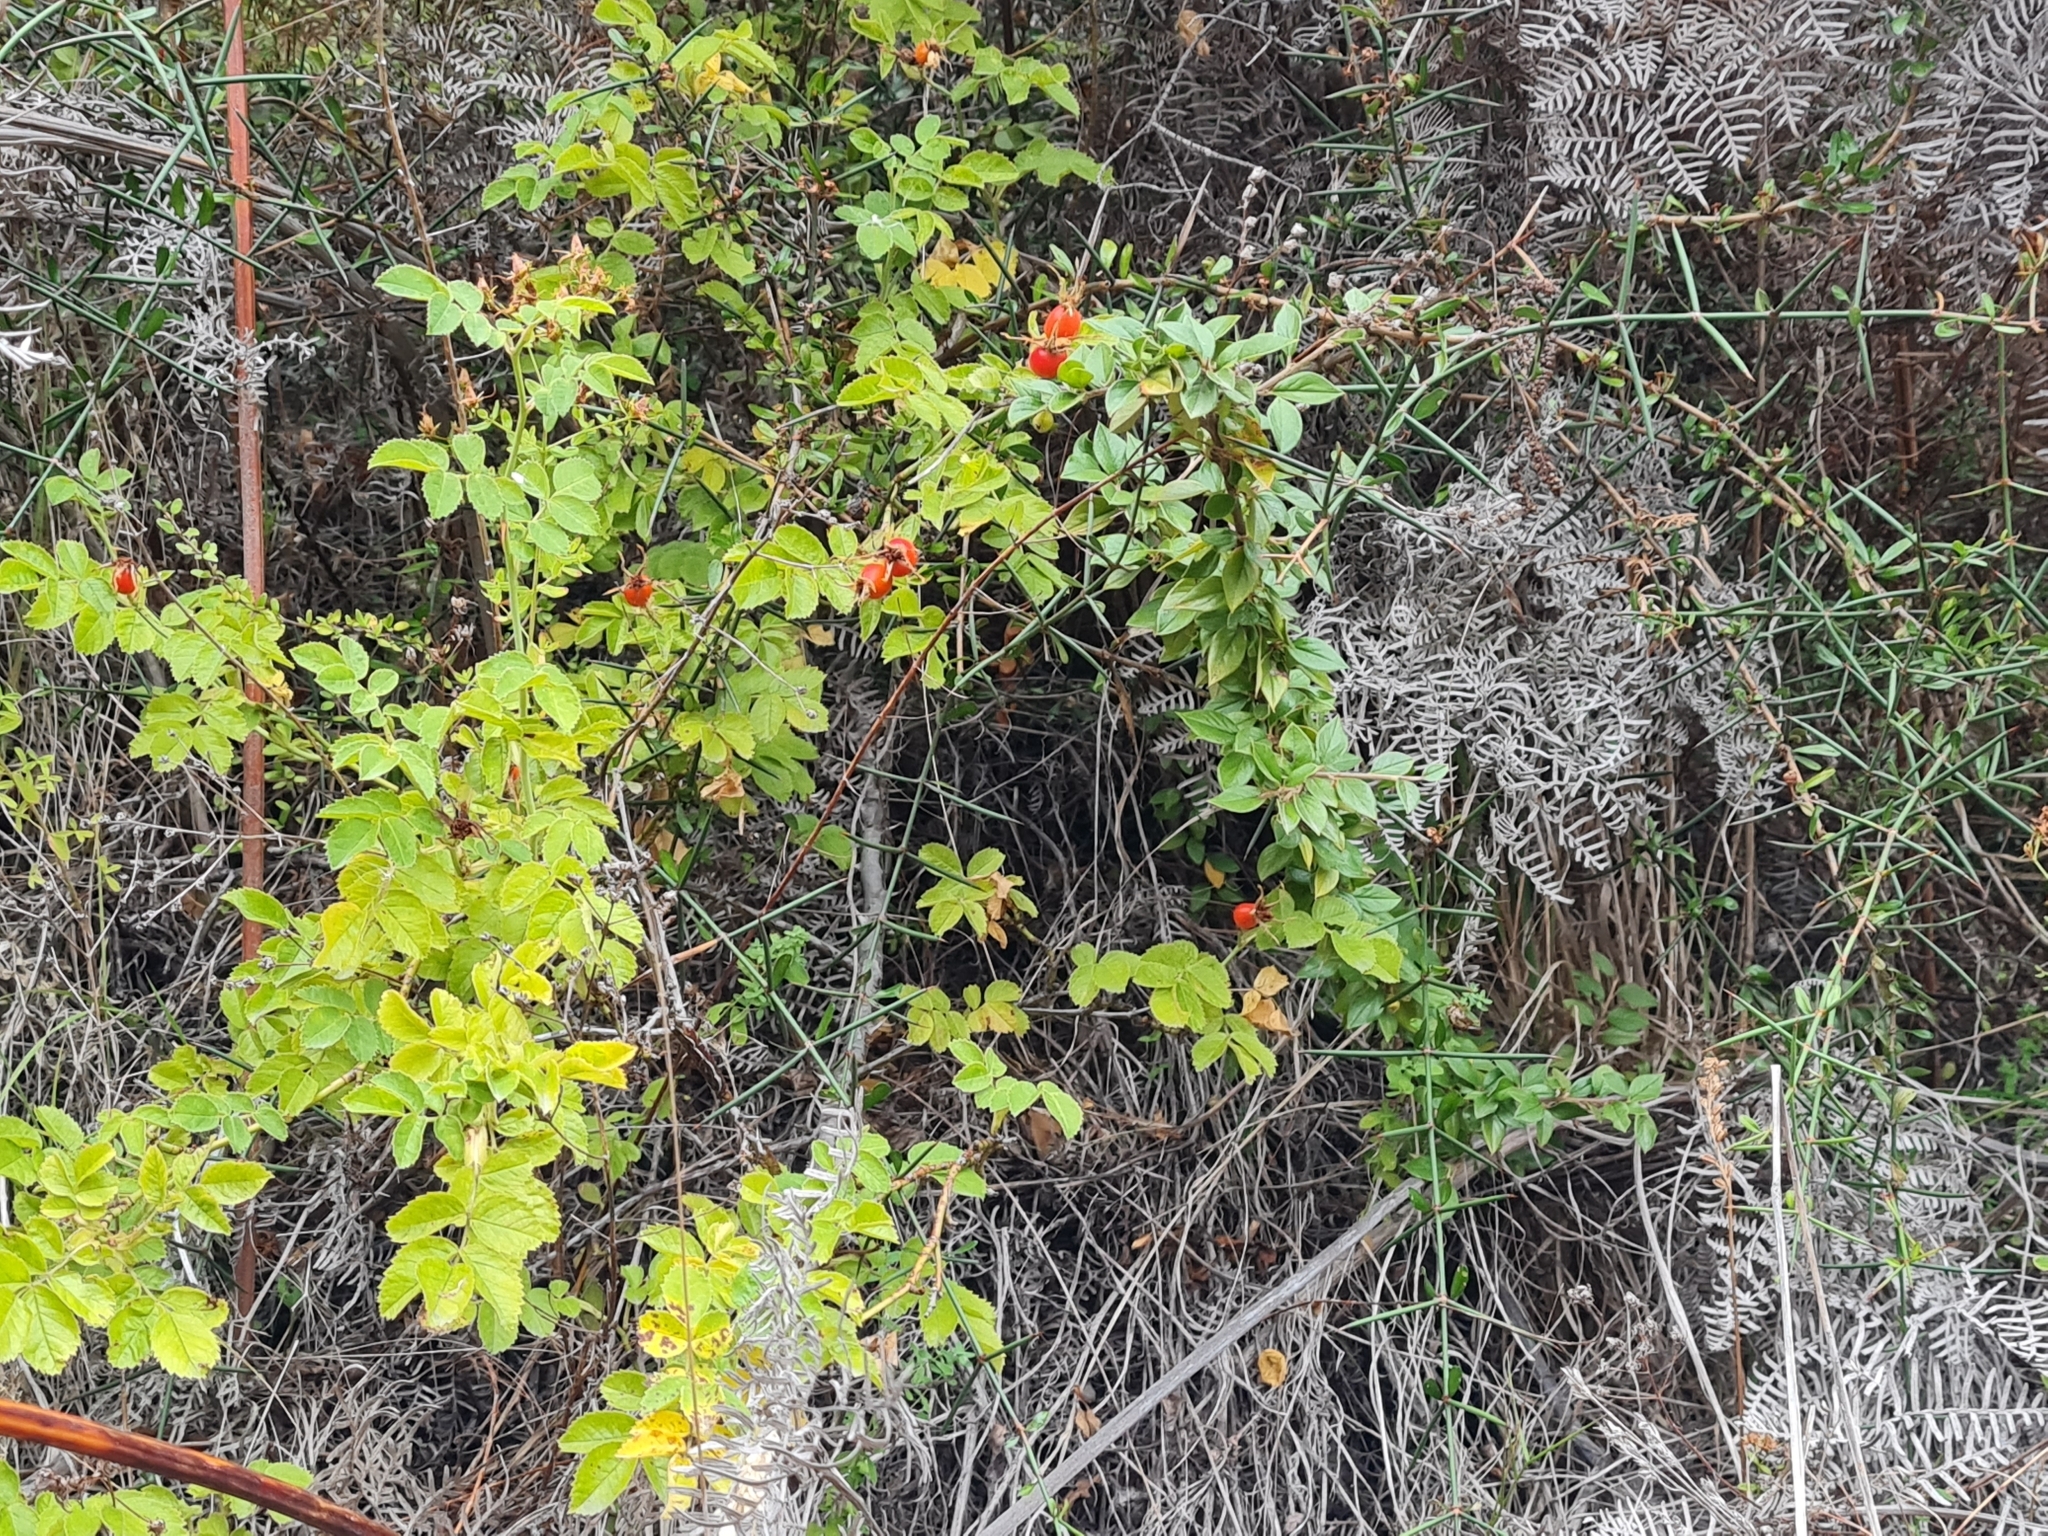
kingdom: Plantae
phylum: Tracheophyta
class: Magnoliopsida
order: Rosales
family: Rosaceae
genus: Rosa
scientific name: Rosa rubiginosa
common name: Sweet-briar
